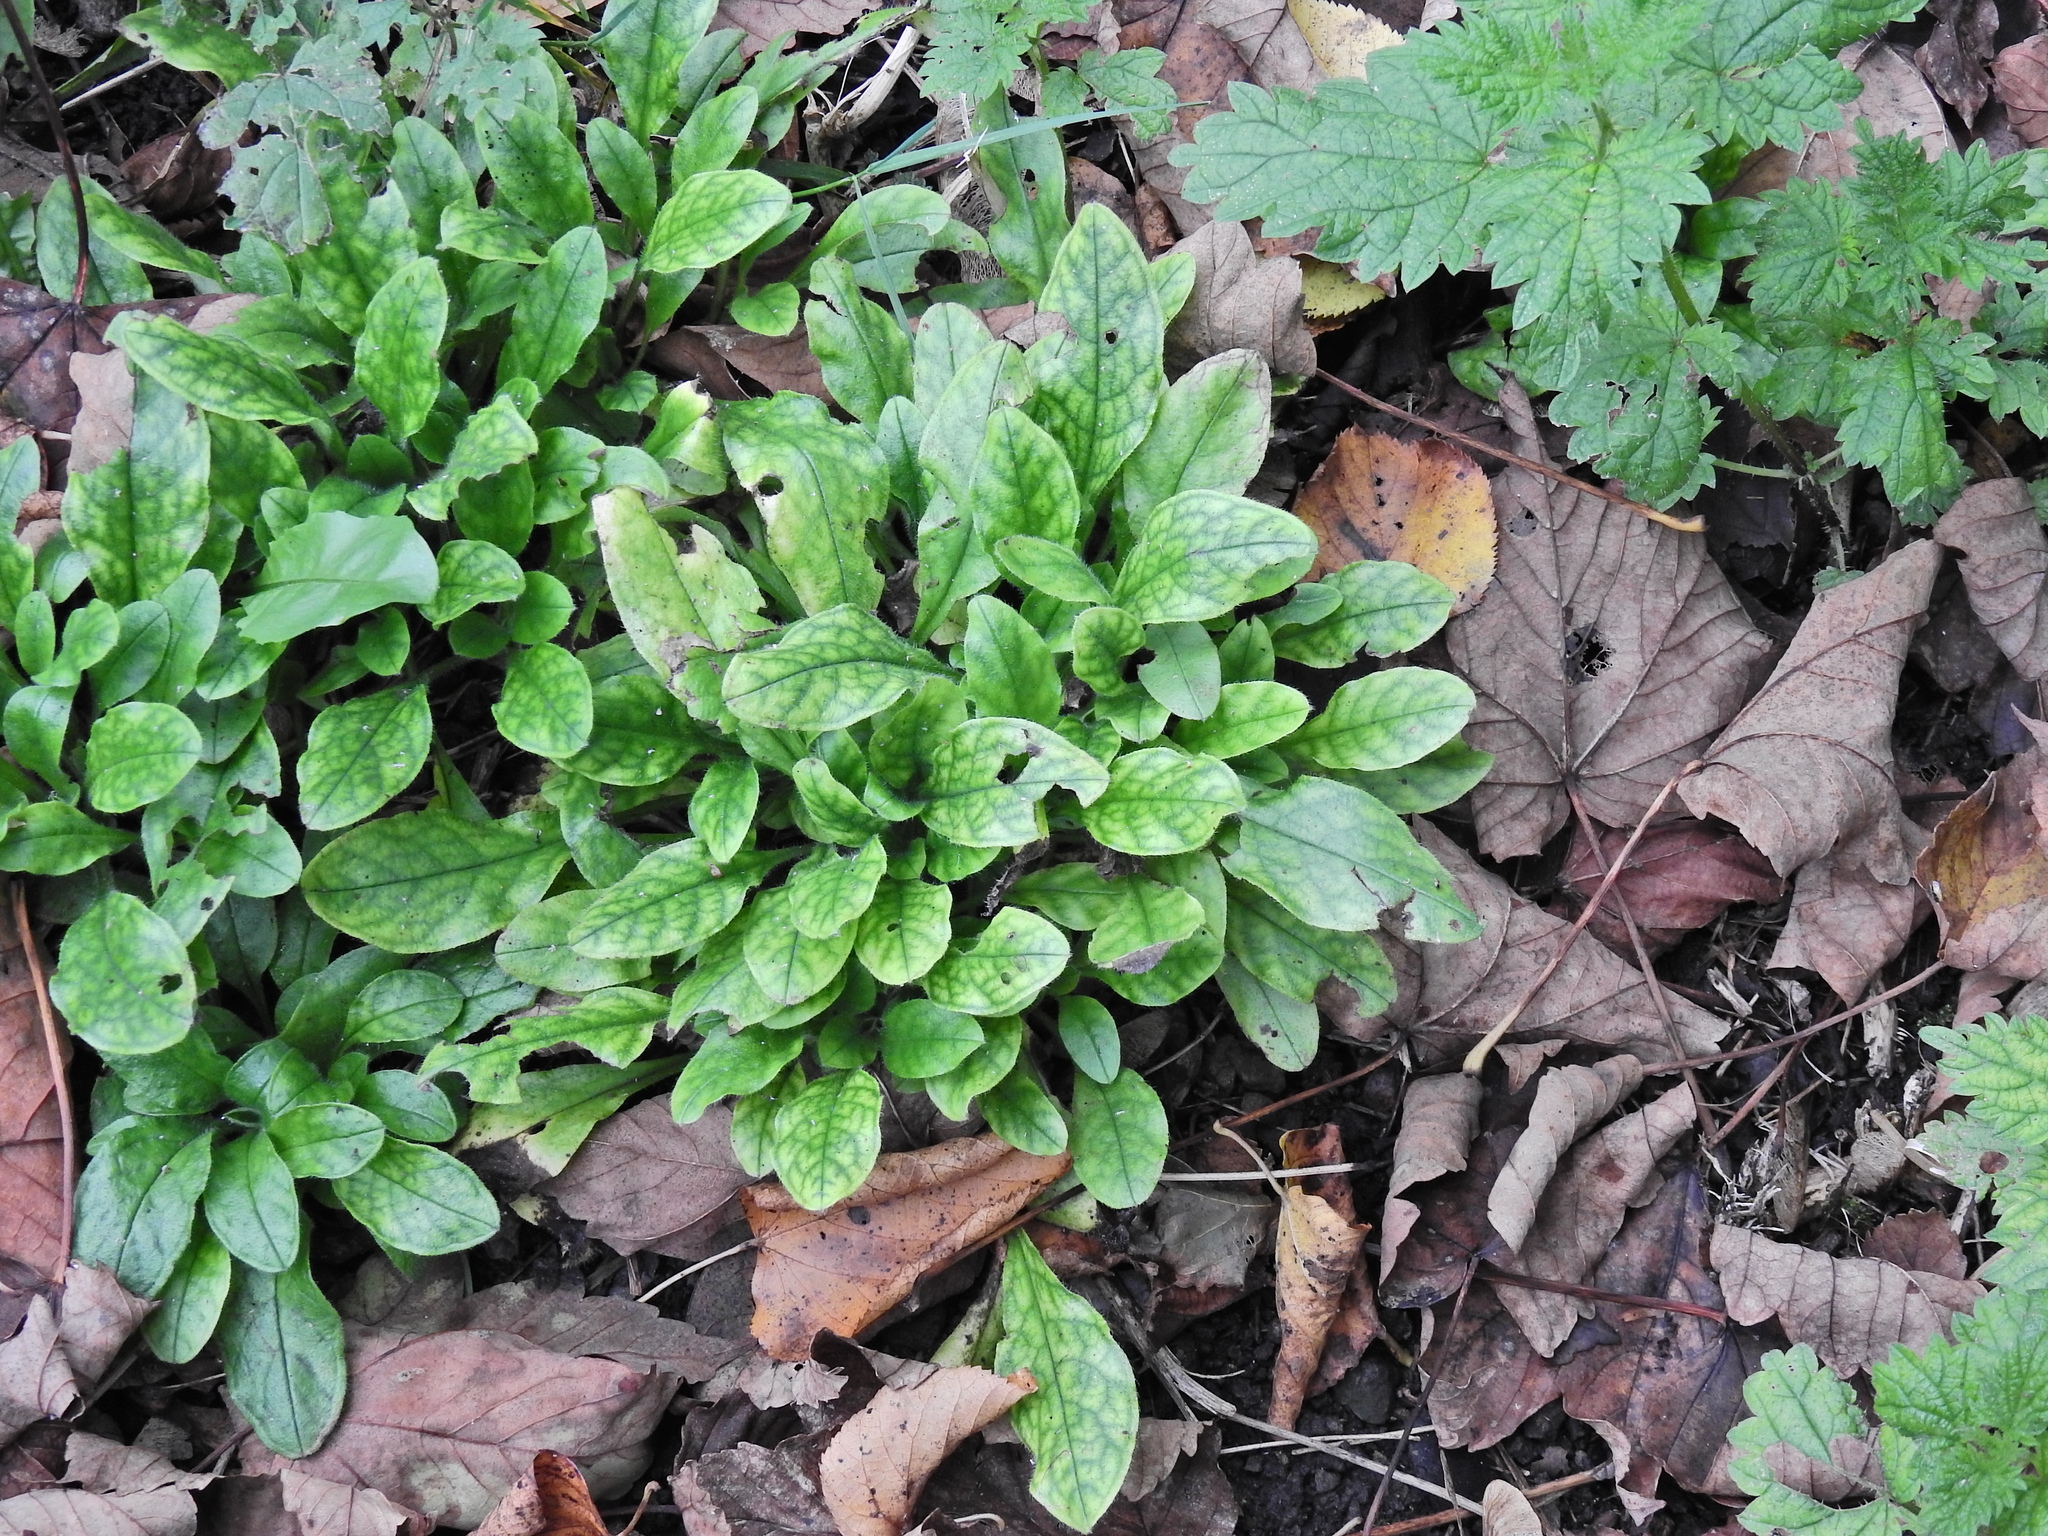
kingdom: Plantae
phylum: Tracheophyta
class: Magnoliopsida
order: Boraginales
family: Boraginaceae
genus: Myosotis
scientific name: Myosotis sylvatica
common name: Wood forget-me-not
